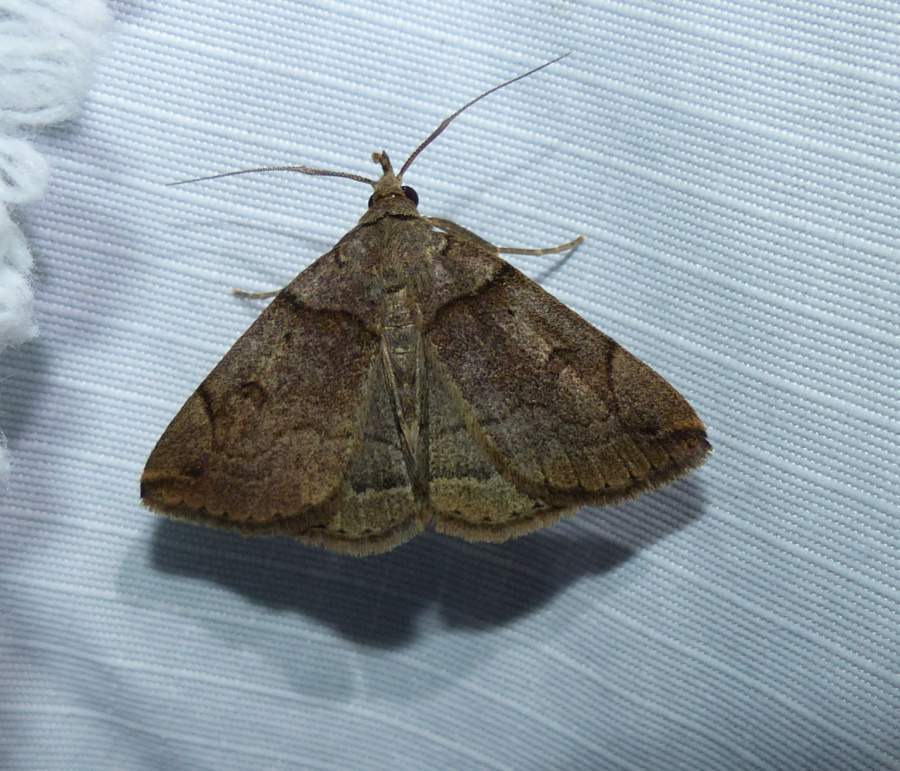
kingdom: Animalia
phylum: Arthropoda
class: Insecta
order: Lepidoptera
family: Erebidae
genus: Zanclognatha
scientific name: Zanclognatha laevigata
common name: Variable fan-foot
